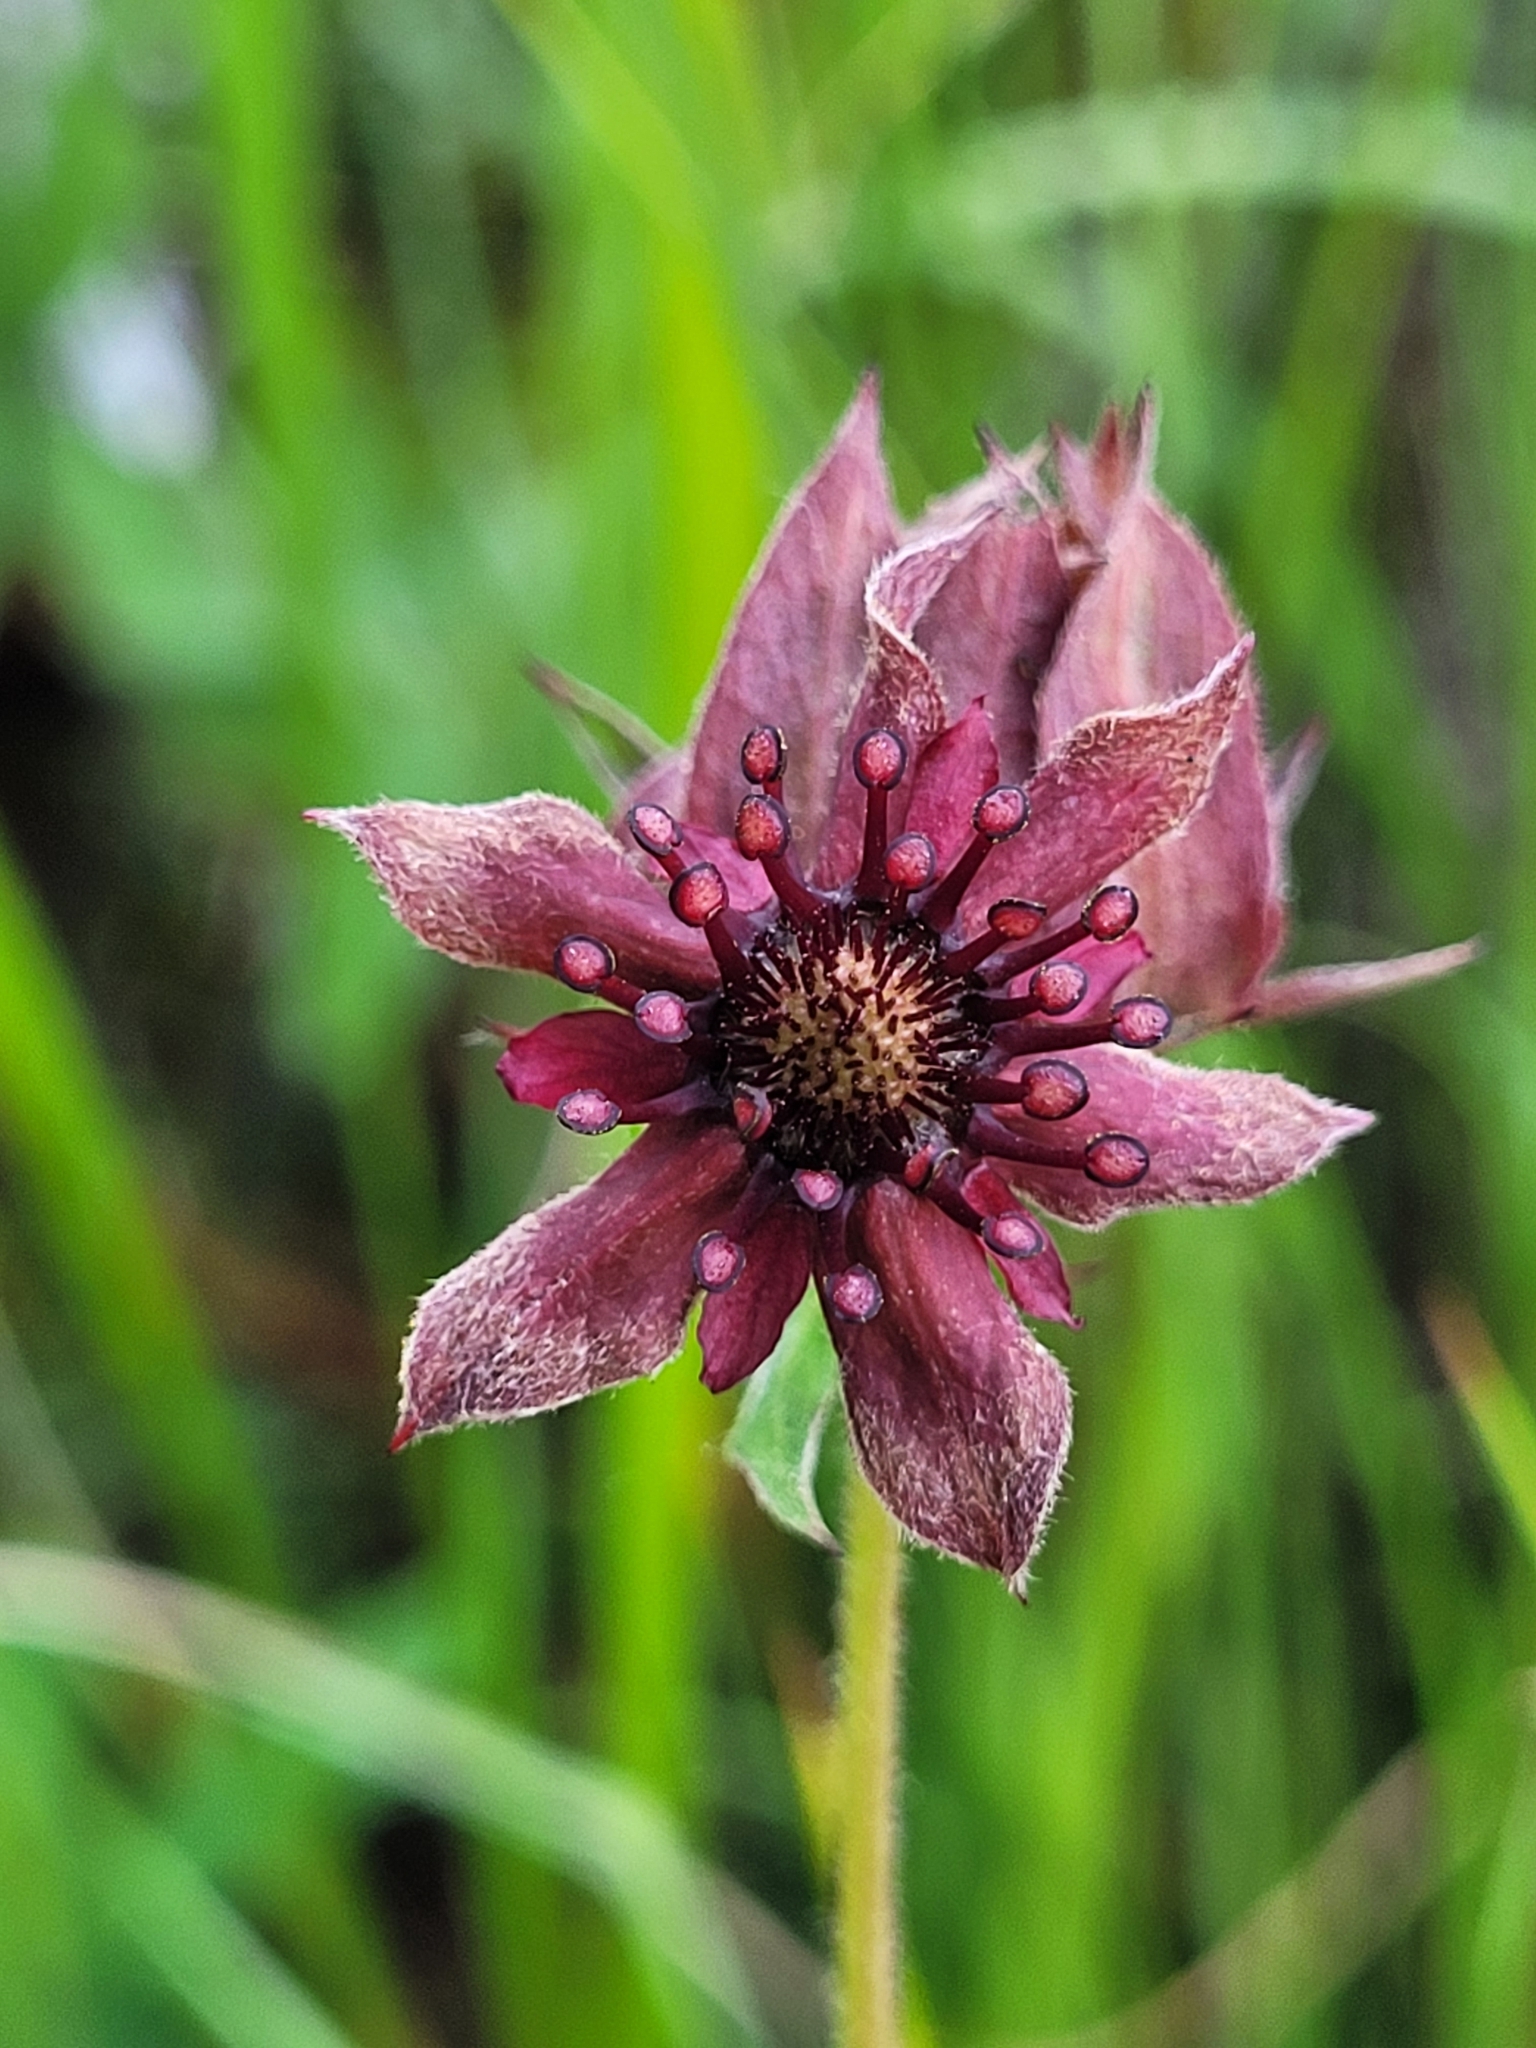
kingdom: Plantae
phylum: Tracheophyta
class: Magnoliopsida
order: Rosales
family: Rosaceae
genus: Comarum
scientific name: Comarum palustre
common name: Marsh cinquefoil
